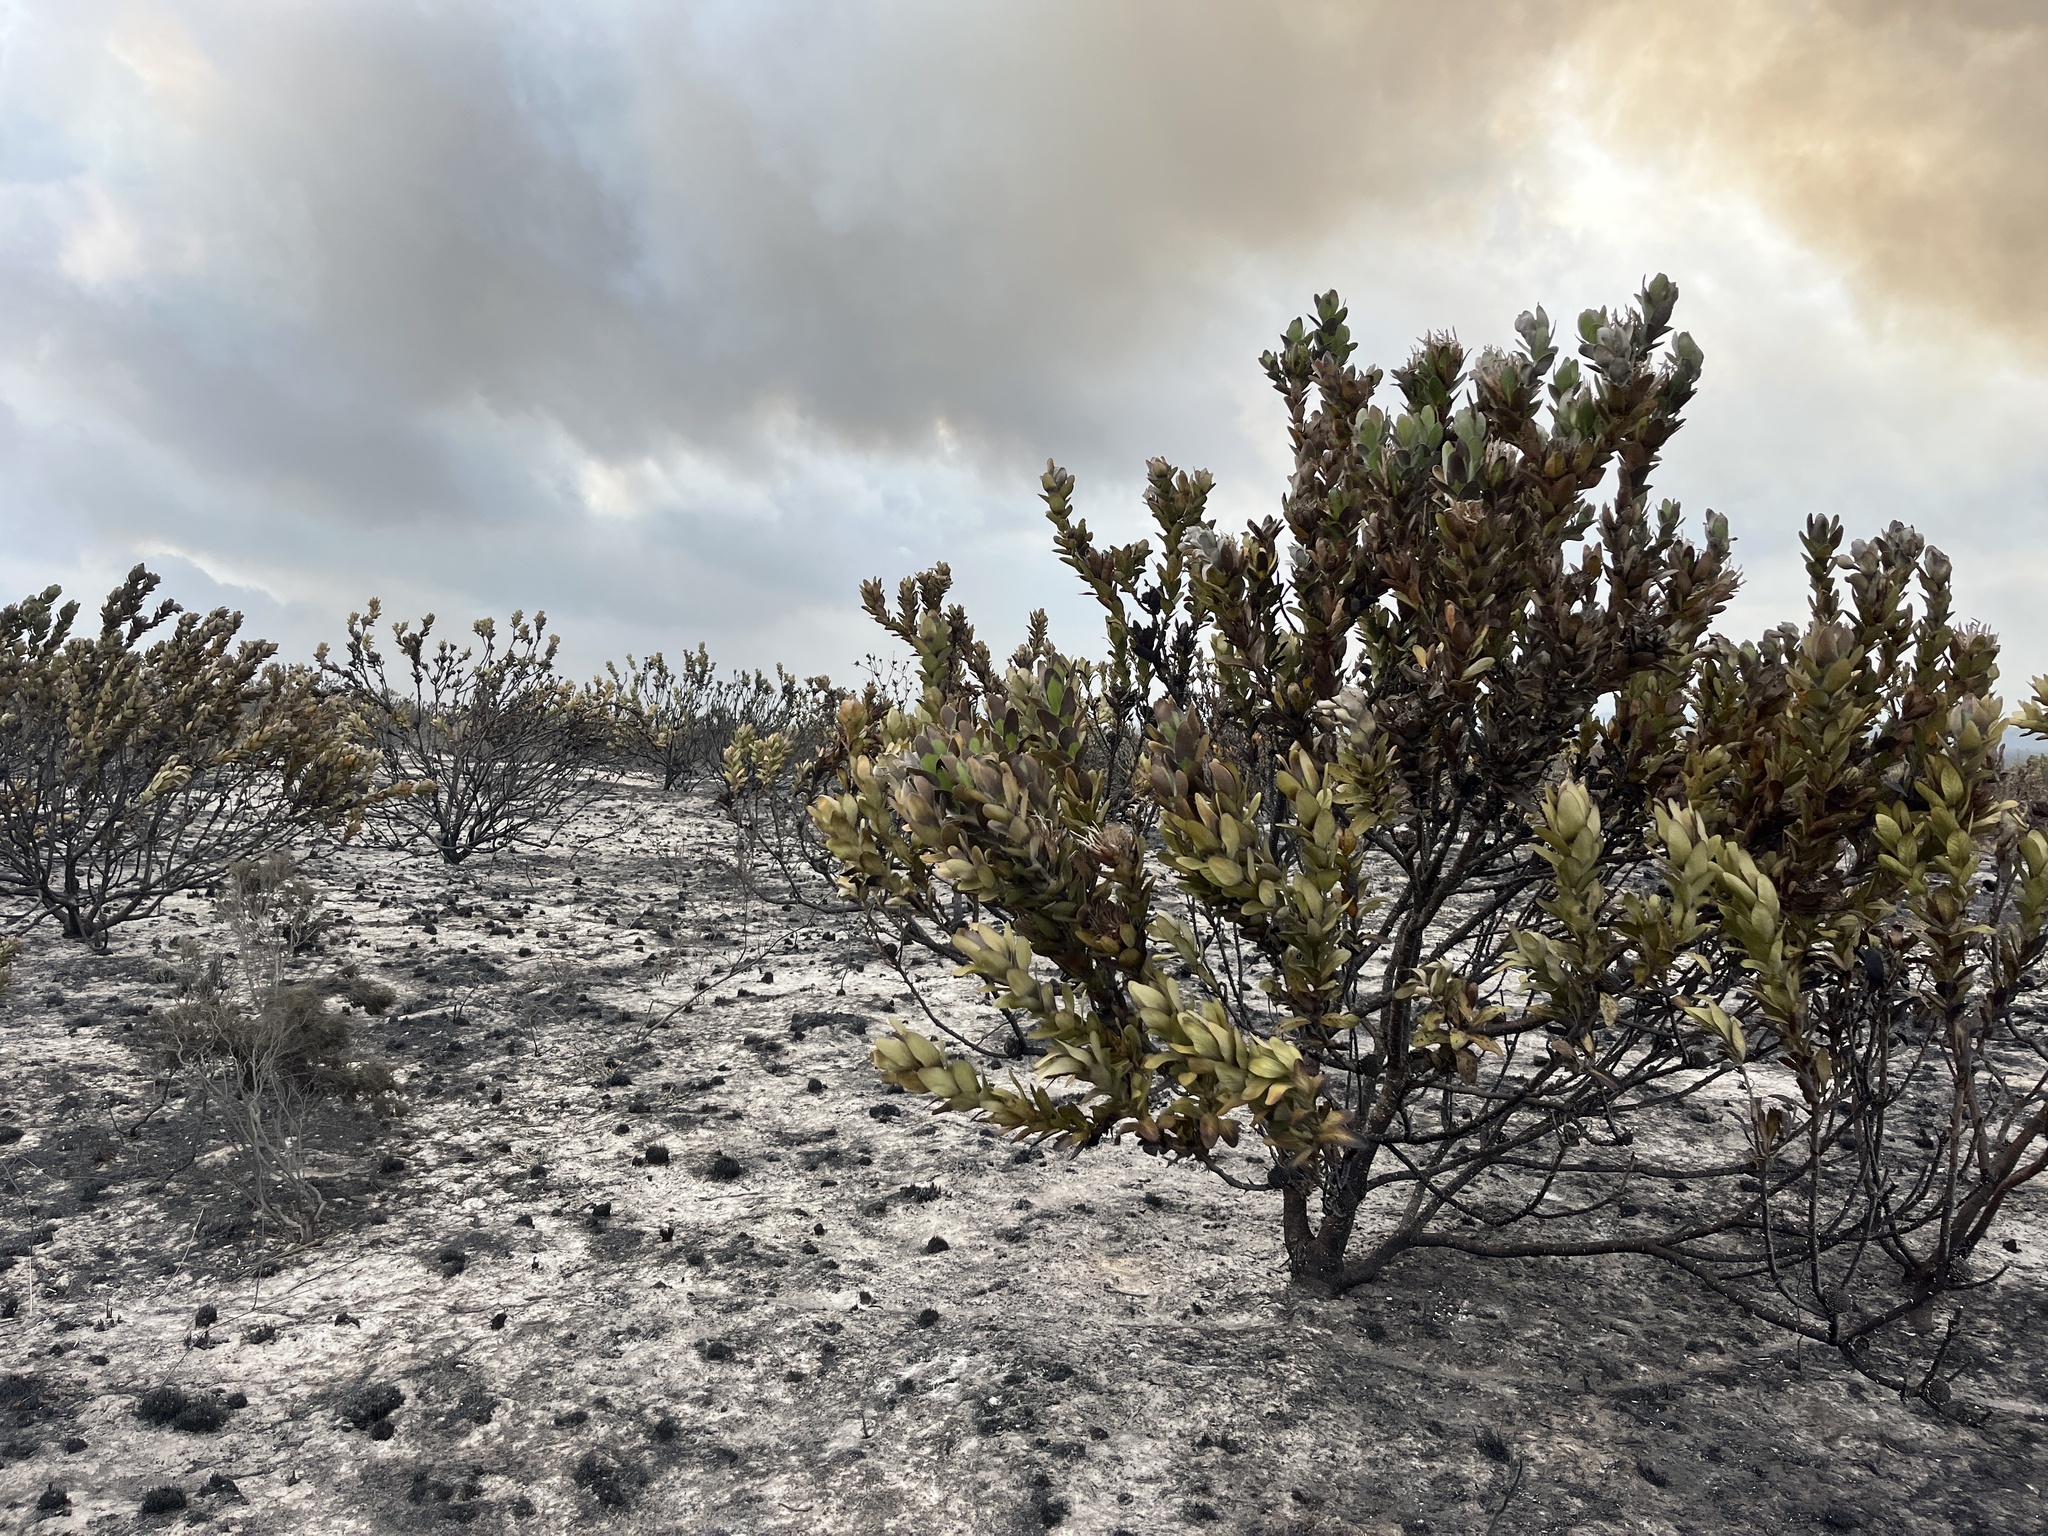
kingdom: Plantae
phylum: Tracheophyta
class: Magnoliopsida
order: Proteales
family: Proteaceae
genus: Protea
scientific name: Protea compacta
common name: Bot river protea
